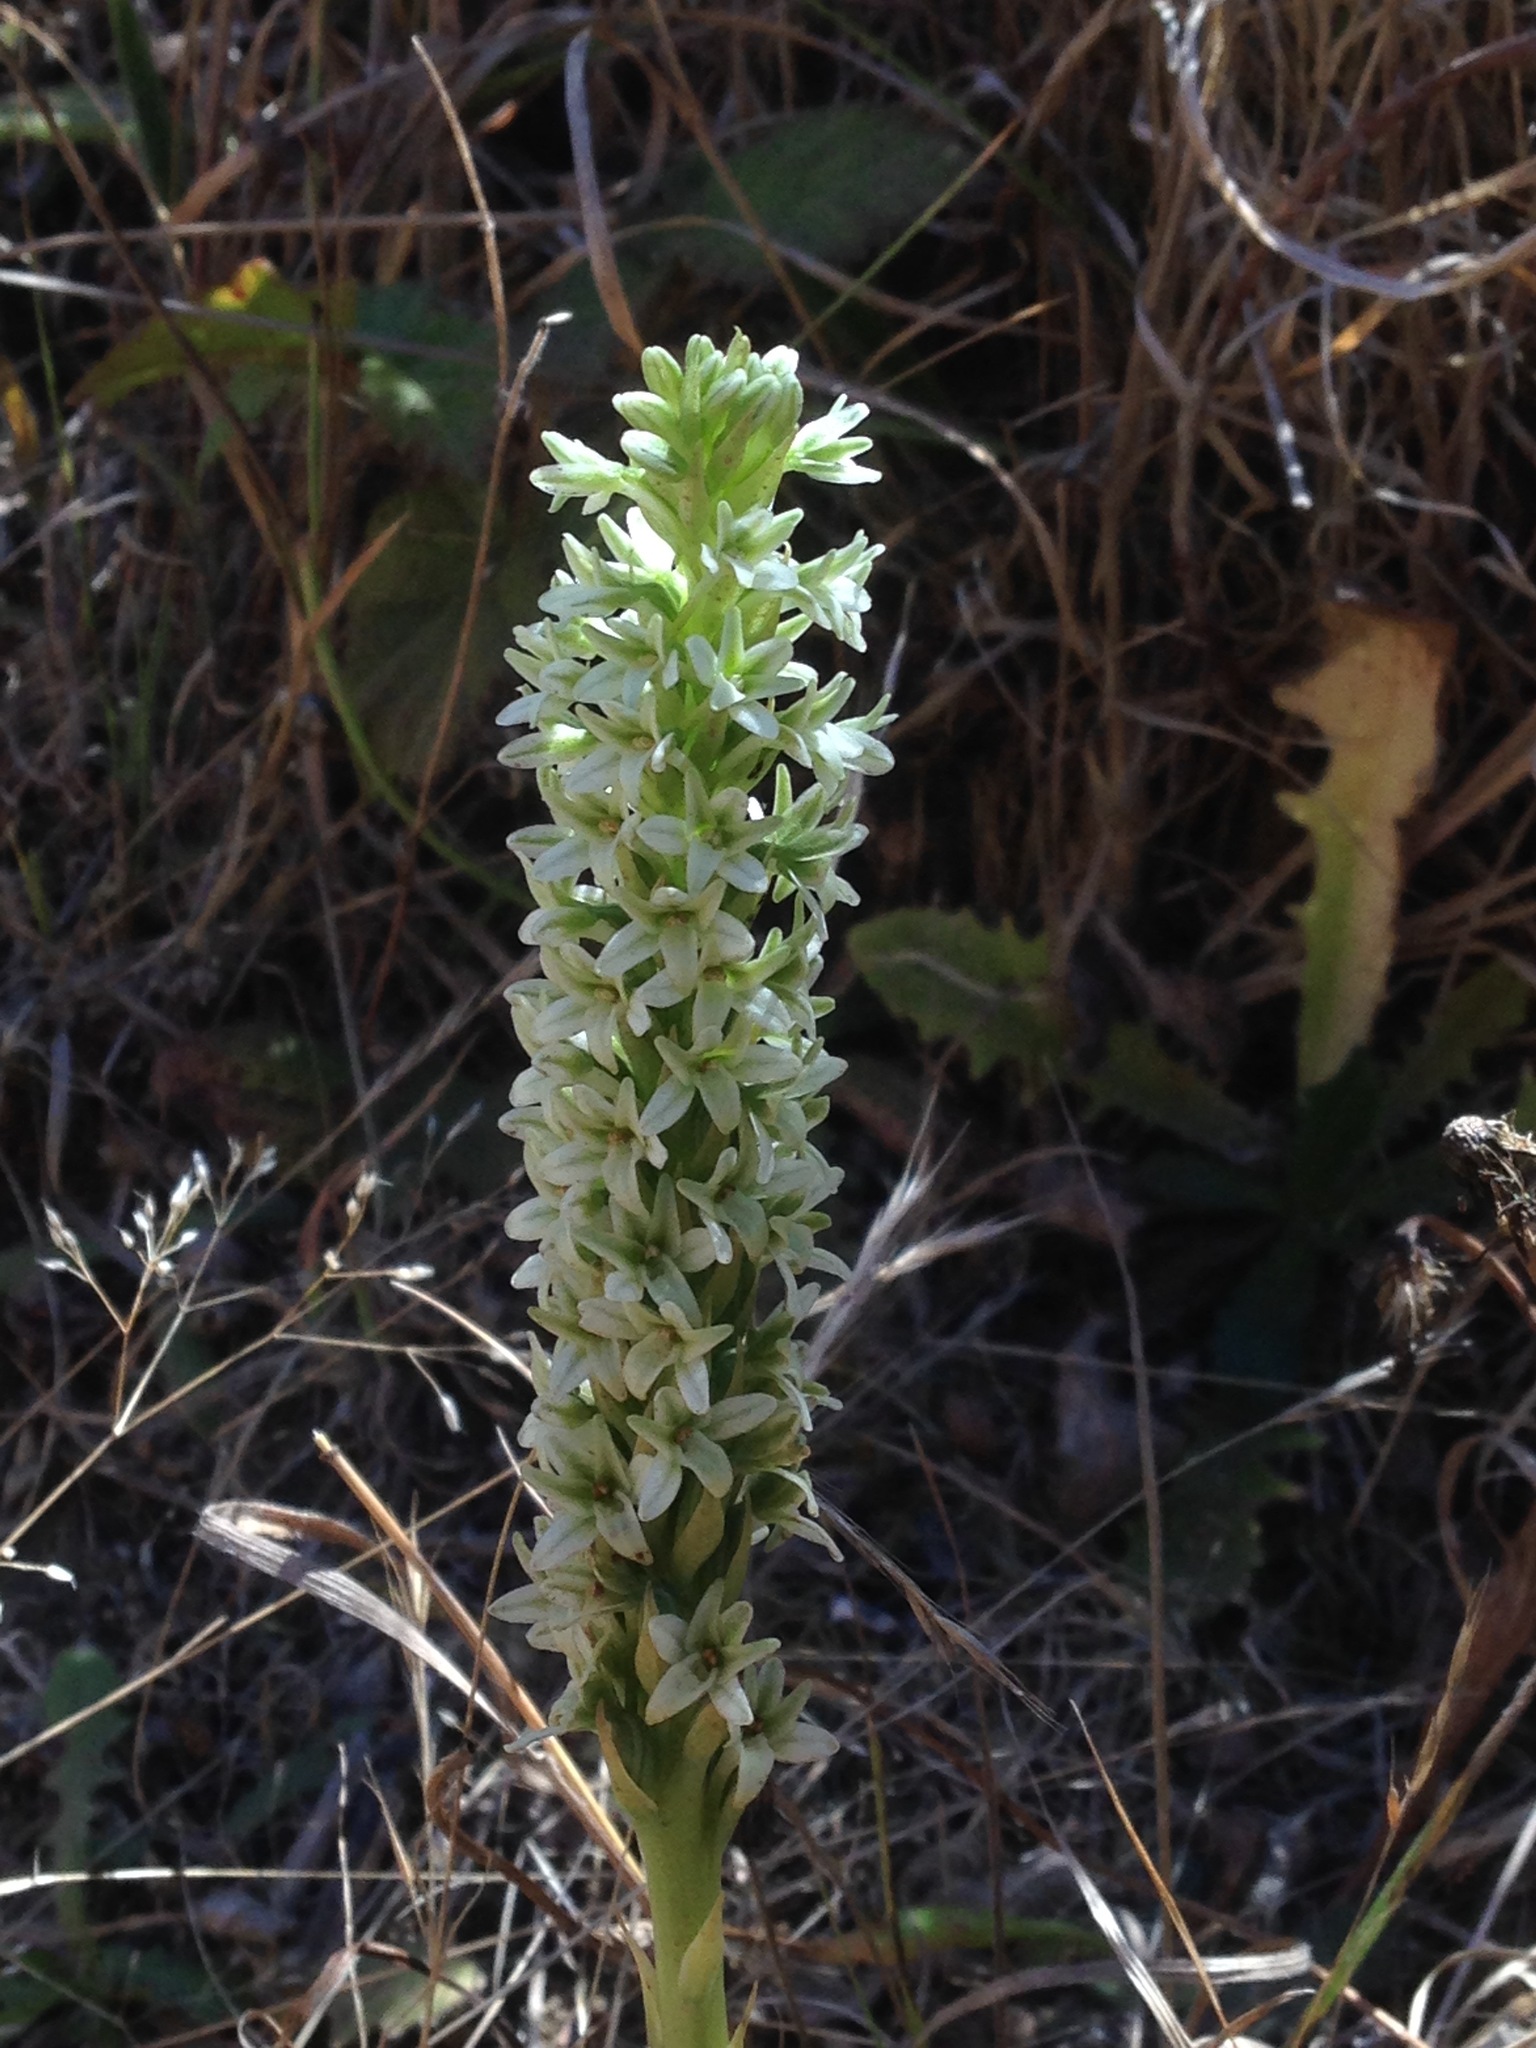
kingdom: Plantae
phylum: Tracheophyta
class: Liliopsida
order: Asparagales
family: Orchidaceae
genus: Platanthera
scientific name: Platanthera elegans
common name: Coast piperia
